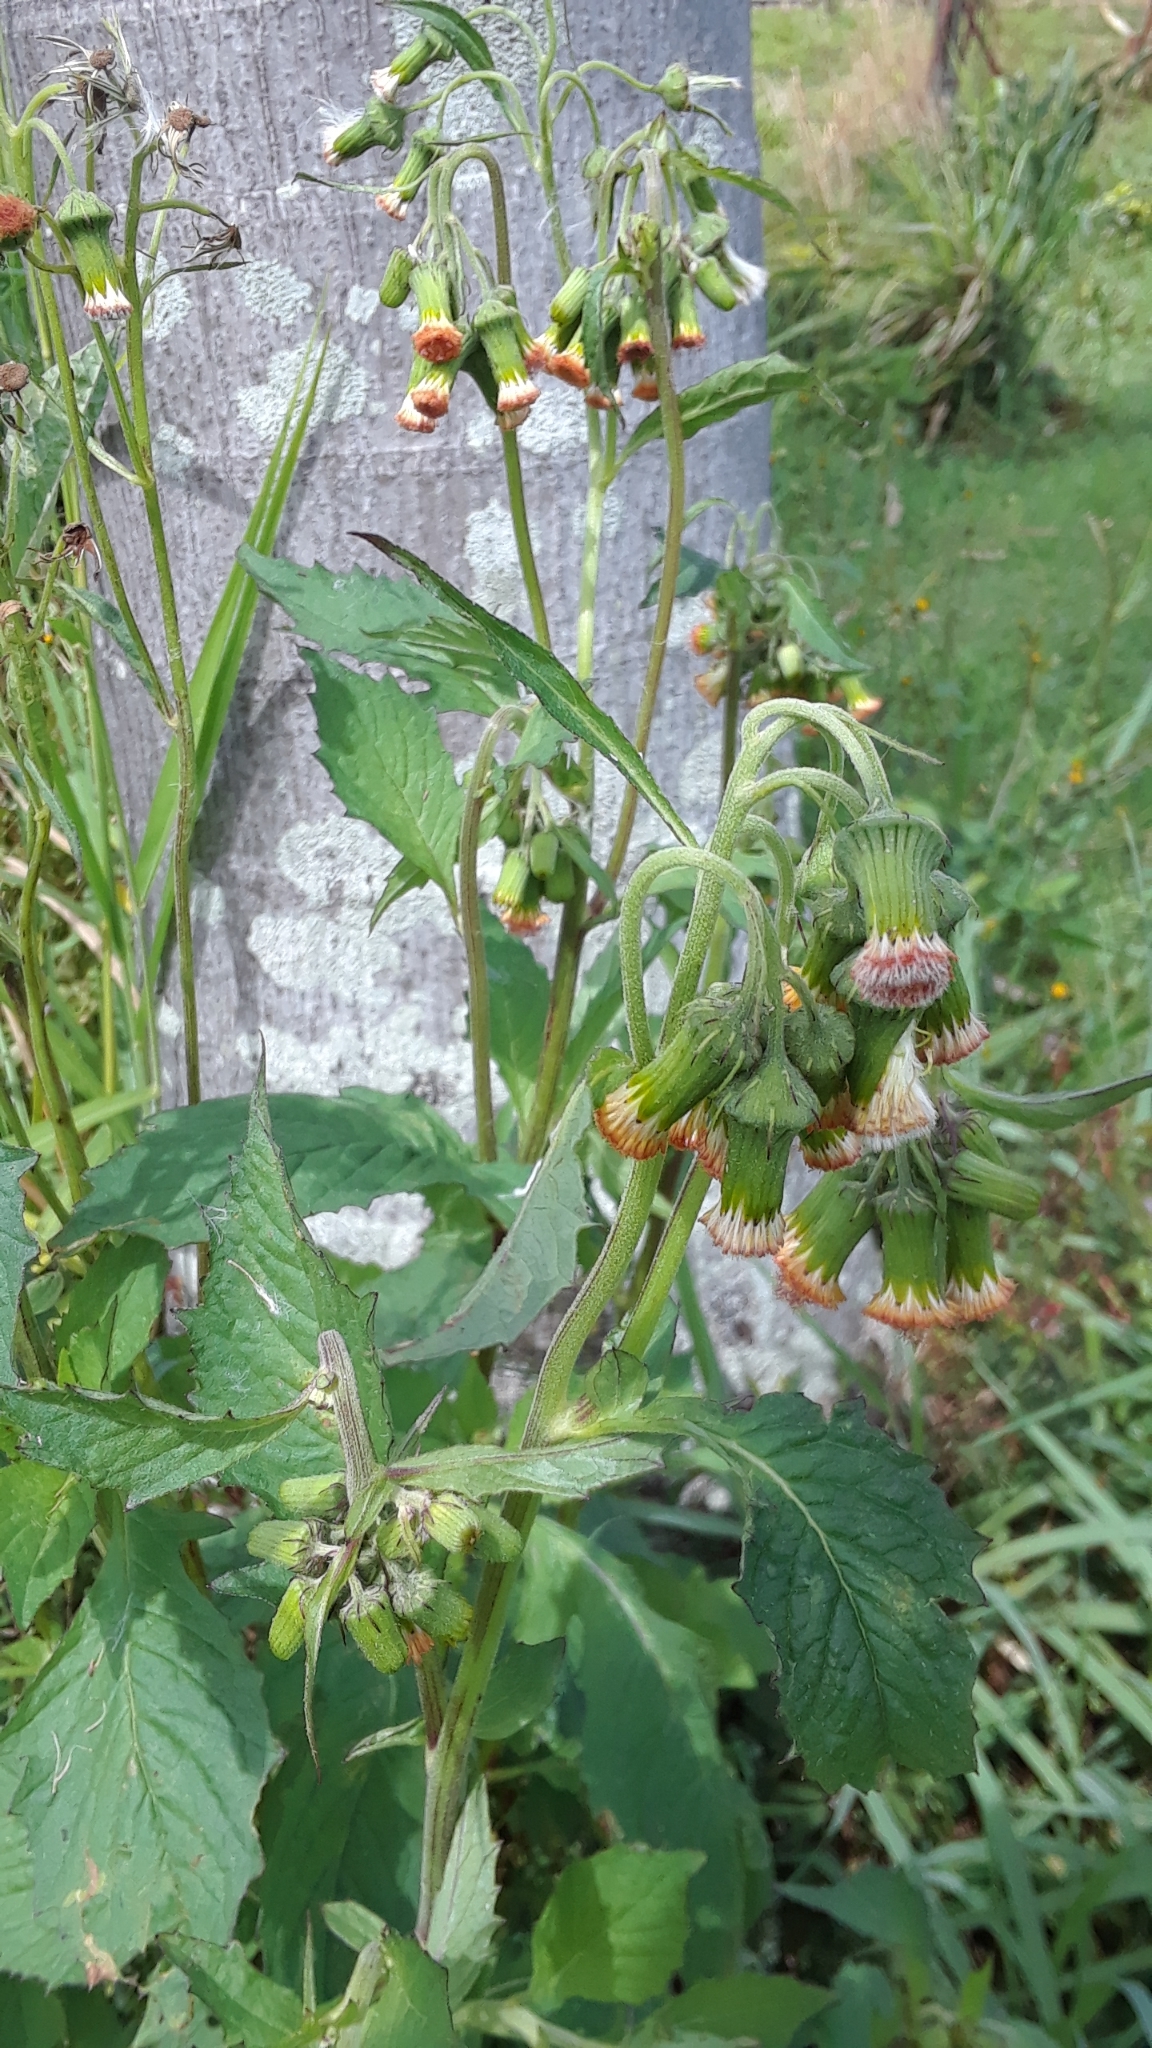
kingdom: Plantae
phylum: Tracheophyta
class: Magnoliopsida
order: Asterales
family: Asteraceae
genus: Crassocephalum
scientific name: Crassocephalum crepidioides
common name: Redflower ragleaf
